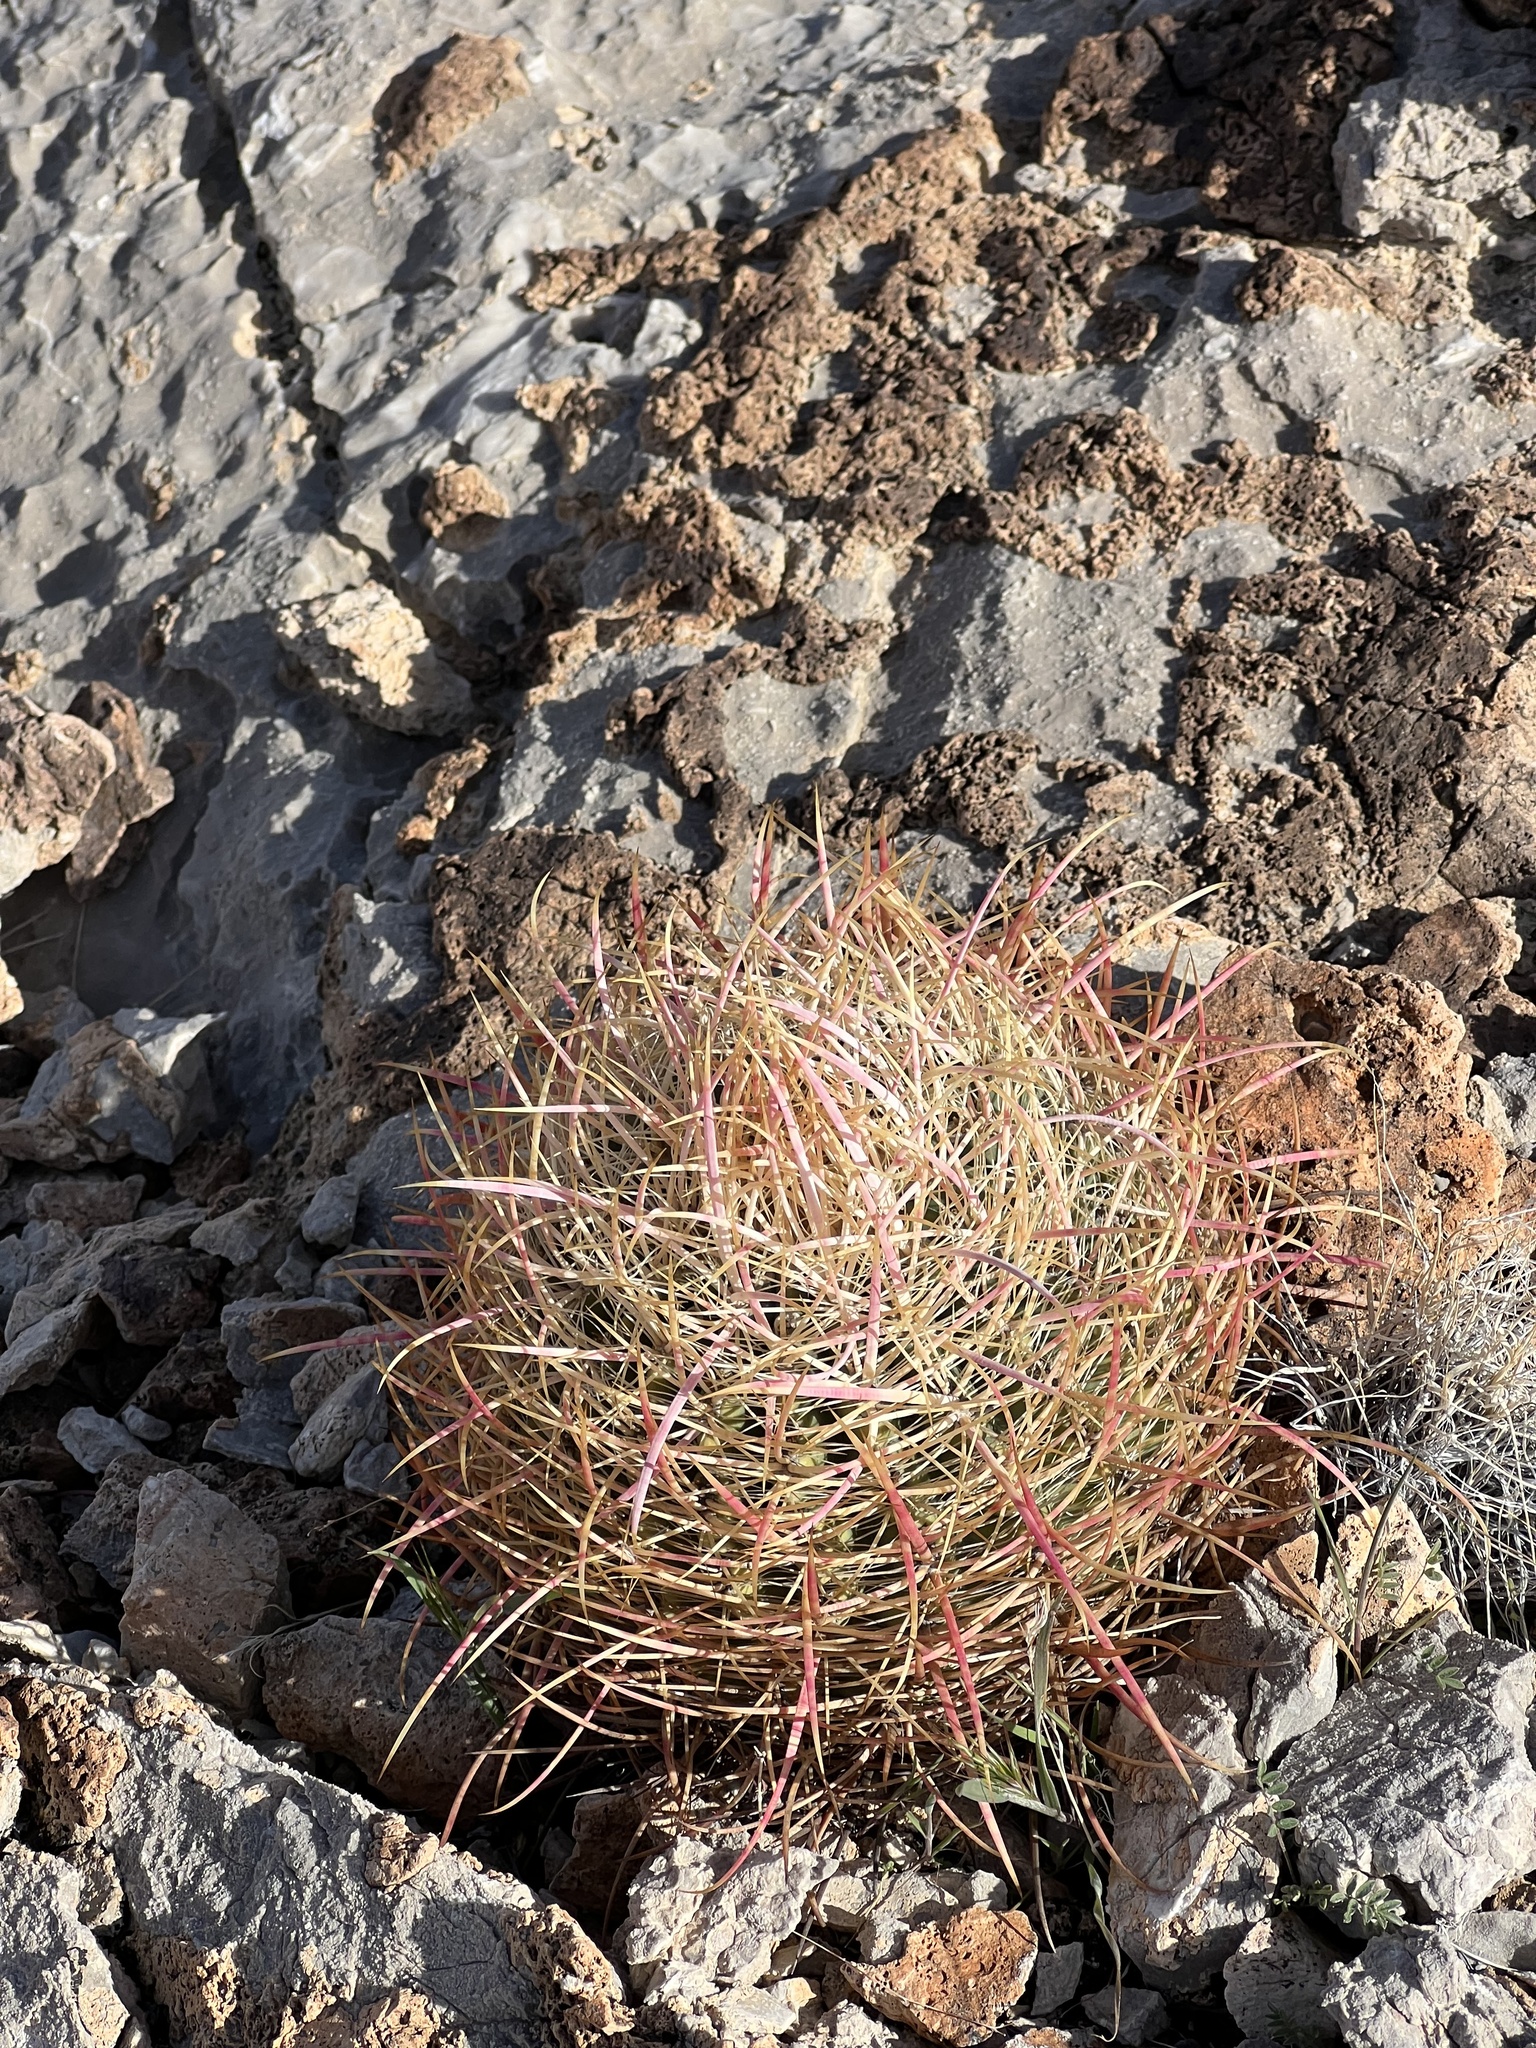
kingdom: Plantae
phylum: Tracheophyta
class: Magnoliopsida
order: Caryophyllales
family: Cactaceae
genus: Ferocactus
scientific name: Ferocactus cylindraceus
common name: California barrel cactus
